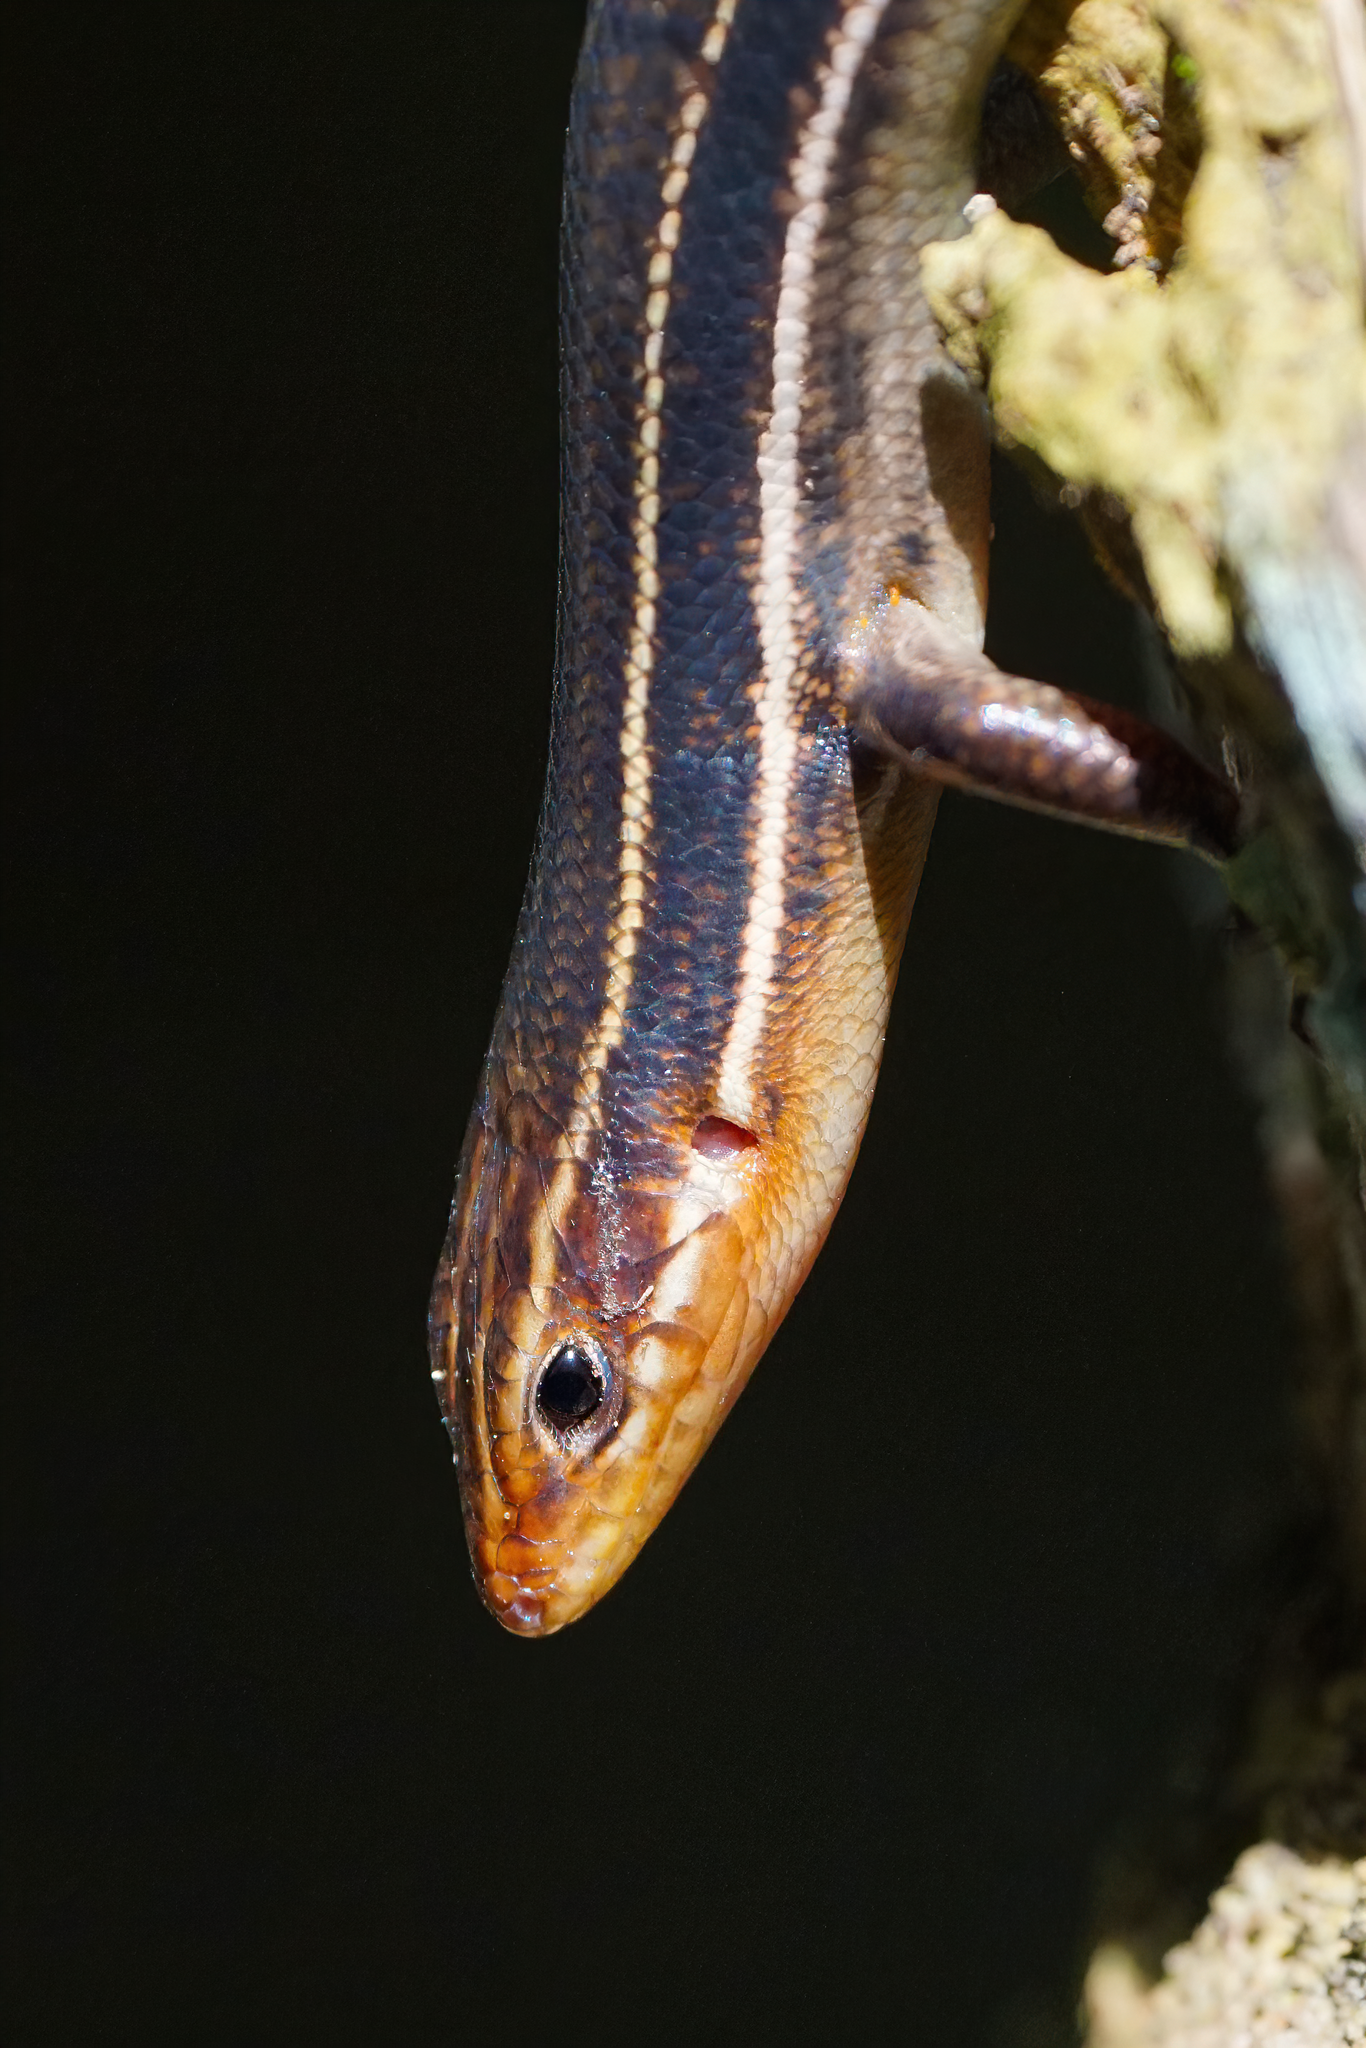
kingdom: Animalia
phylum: Chordata
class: Squamata
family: Scincidae
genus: Plestiodon
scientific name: Plestiodon inexpectatus
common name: Southeastern five-lined skink
